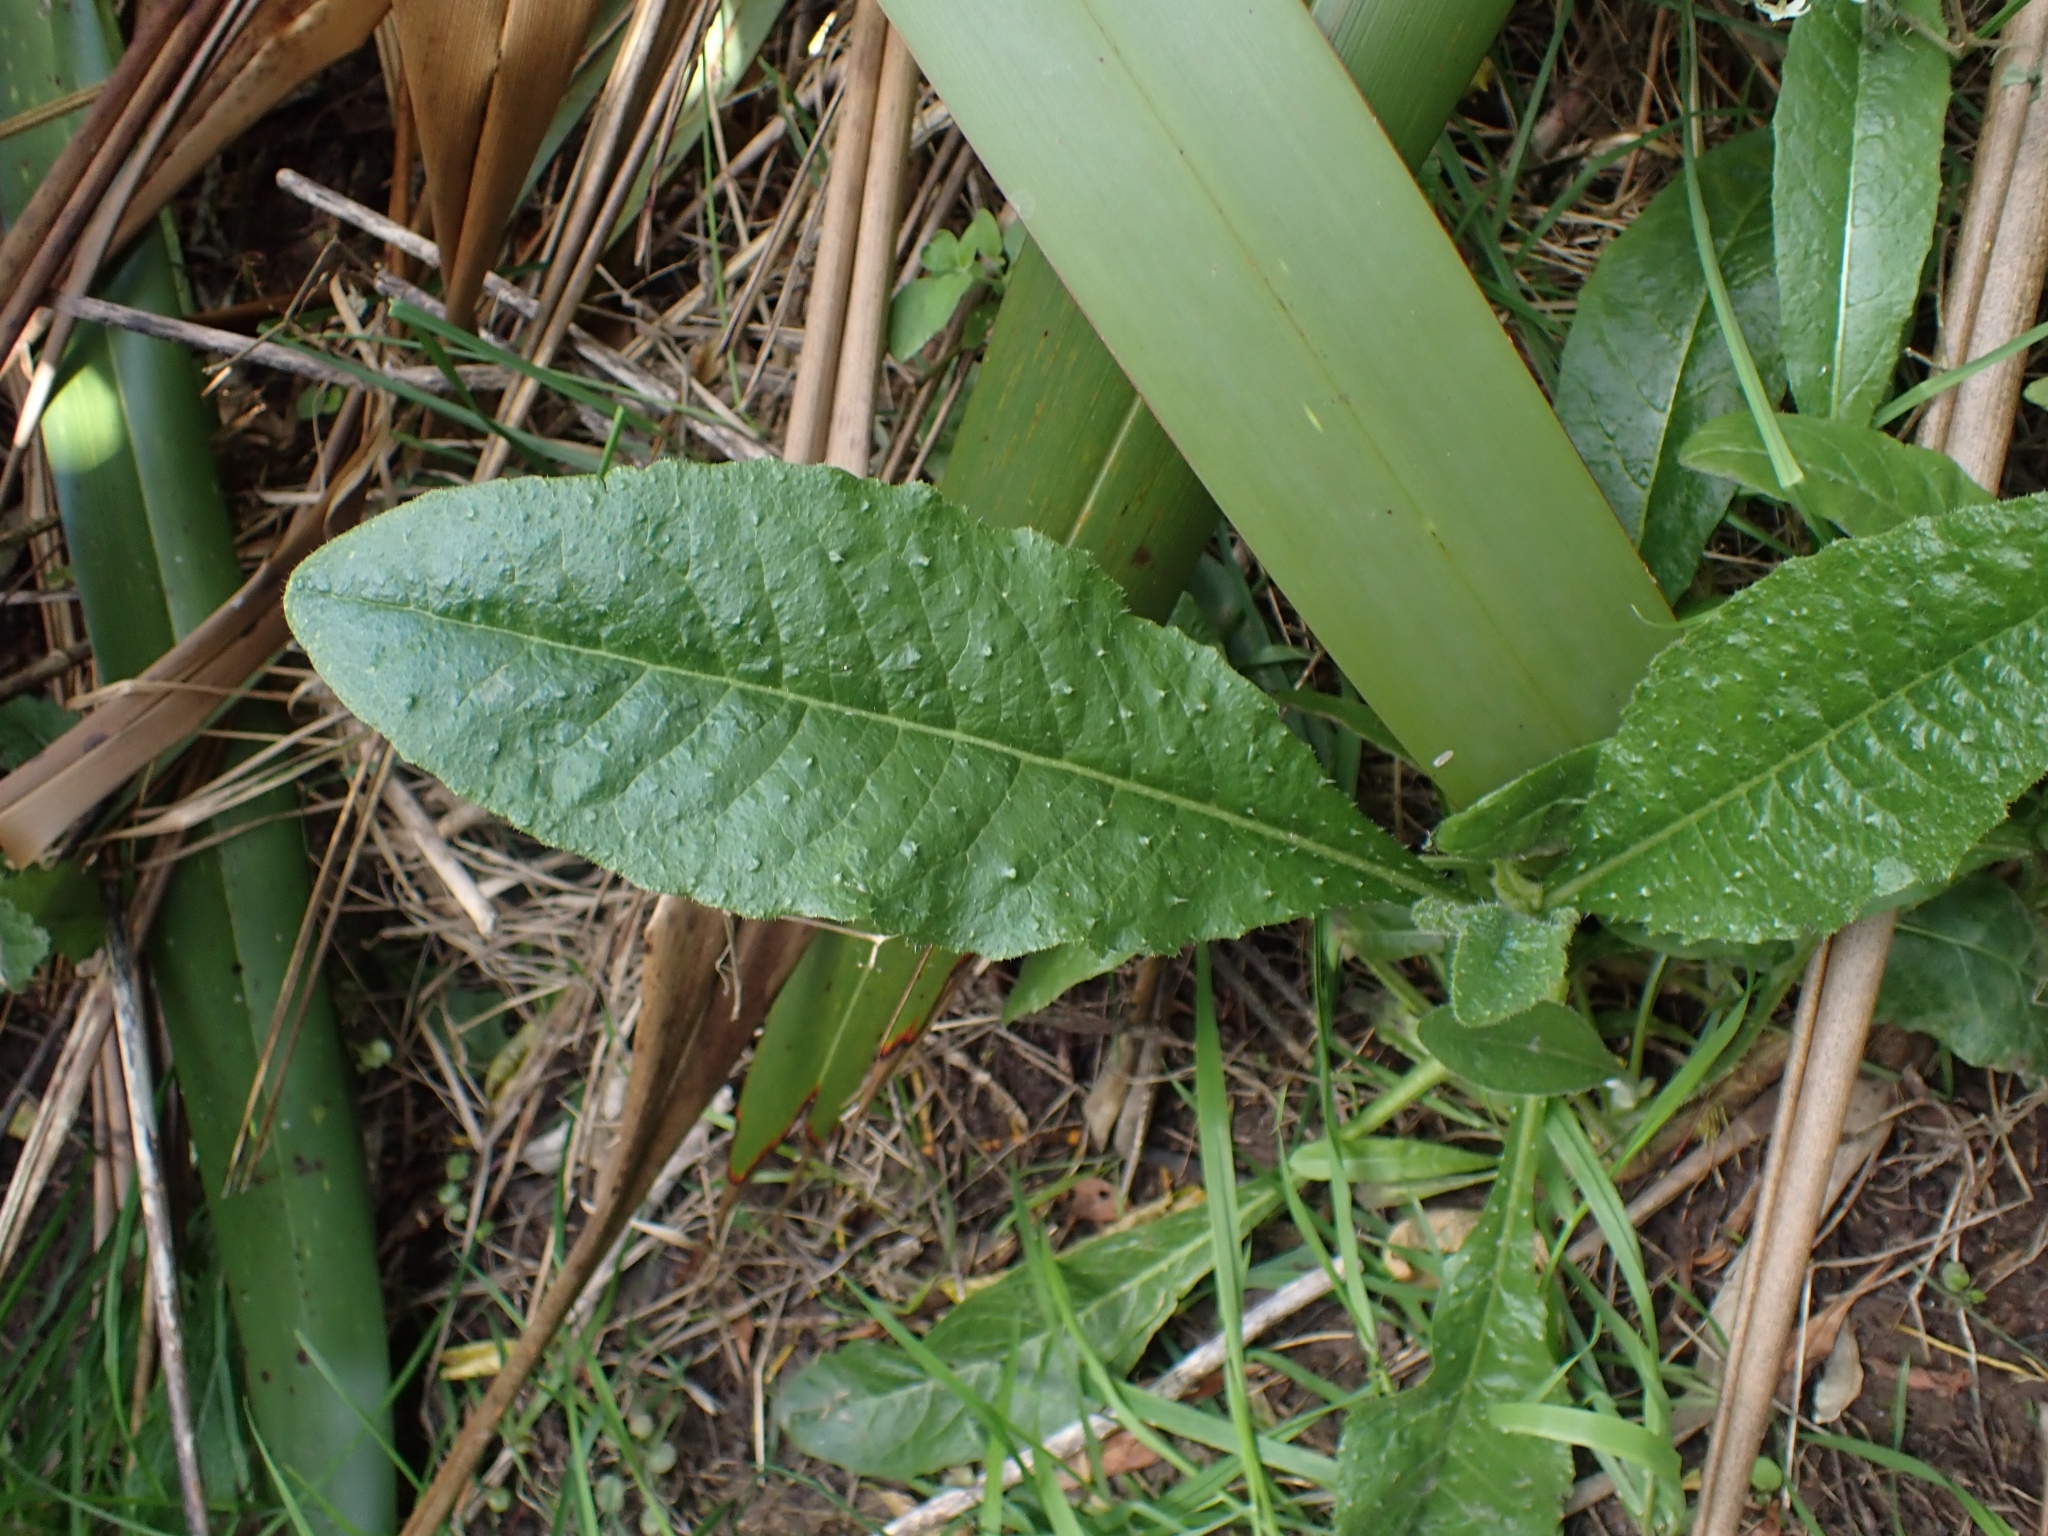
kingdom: Plantae
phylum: Tracheophyta
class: Magnoliopsida
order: Asterales
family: Asteraceae
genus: Helminthotheca
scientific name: Helminthotheca echioides
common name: Ox-tongue
